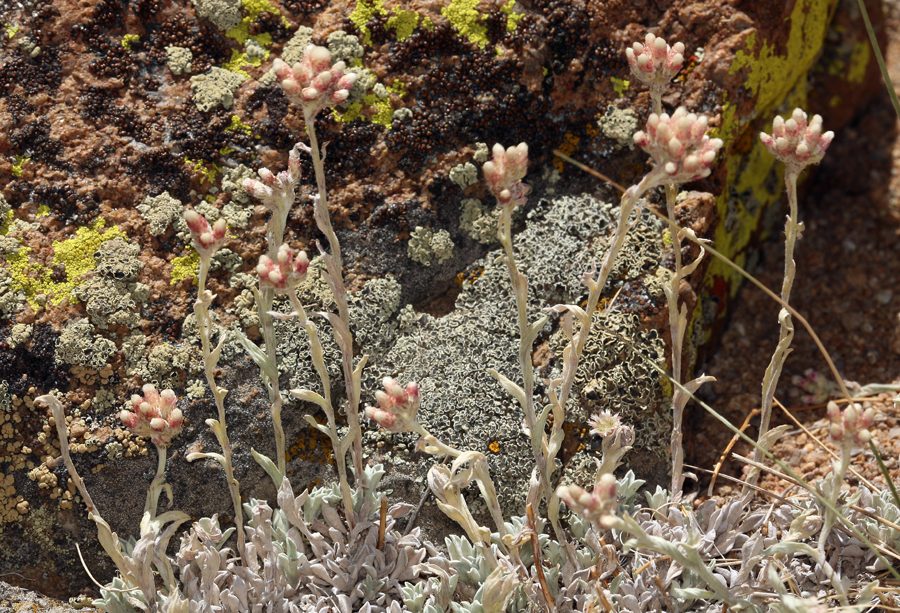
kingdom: Plantae
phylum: Tracheophyta
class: Magnoliopsida
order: Asterales
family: Asteraceae
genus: Antennaria
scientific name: Antennaria rosea
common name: Rosy pussytoes
